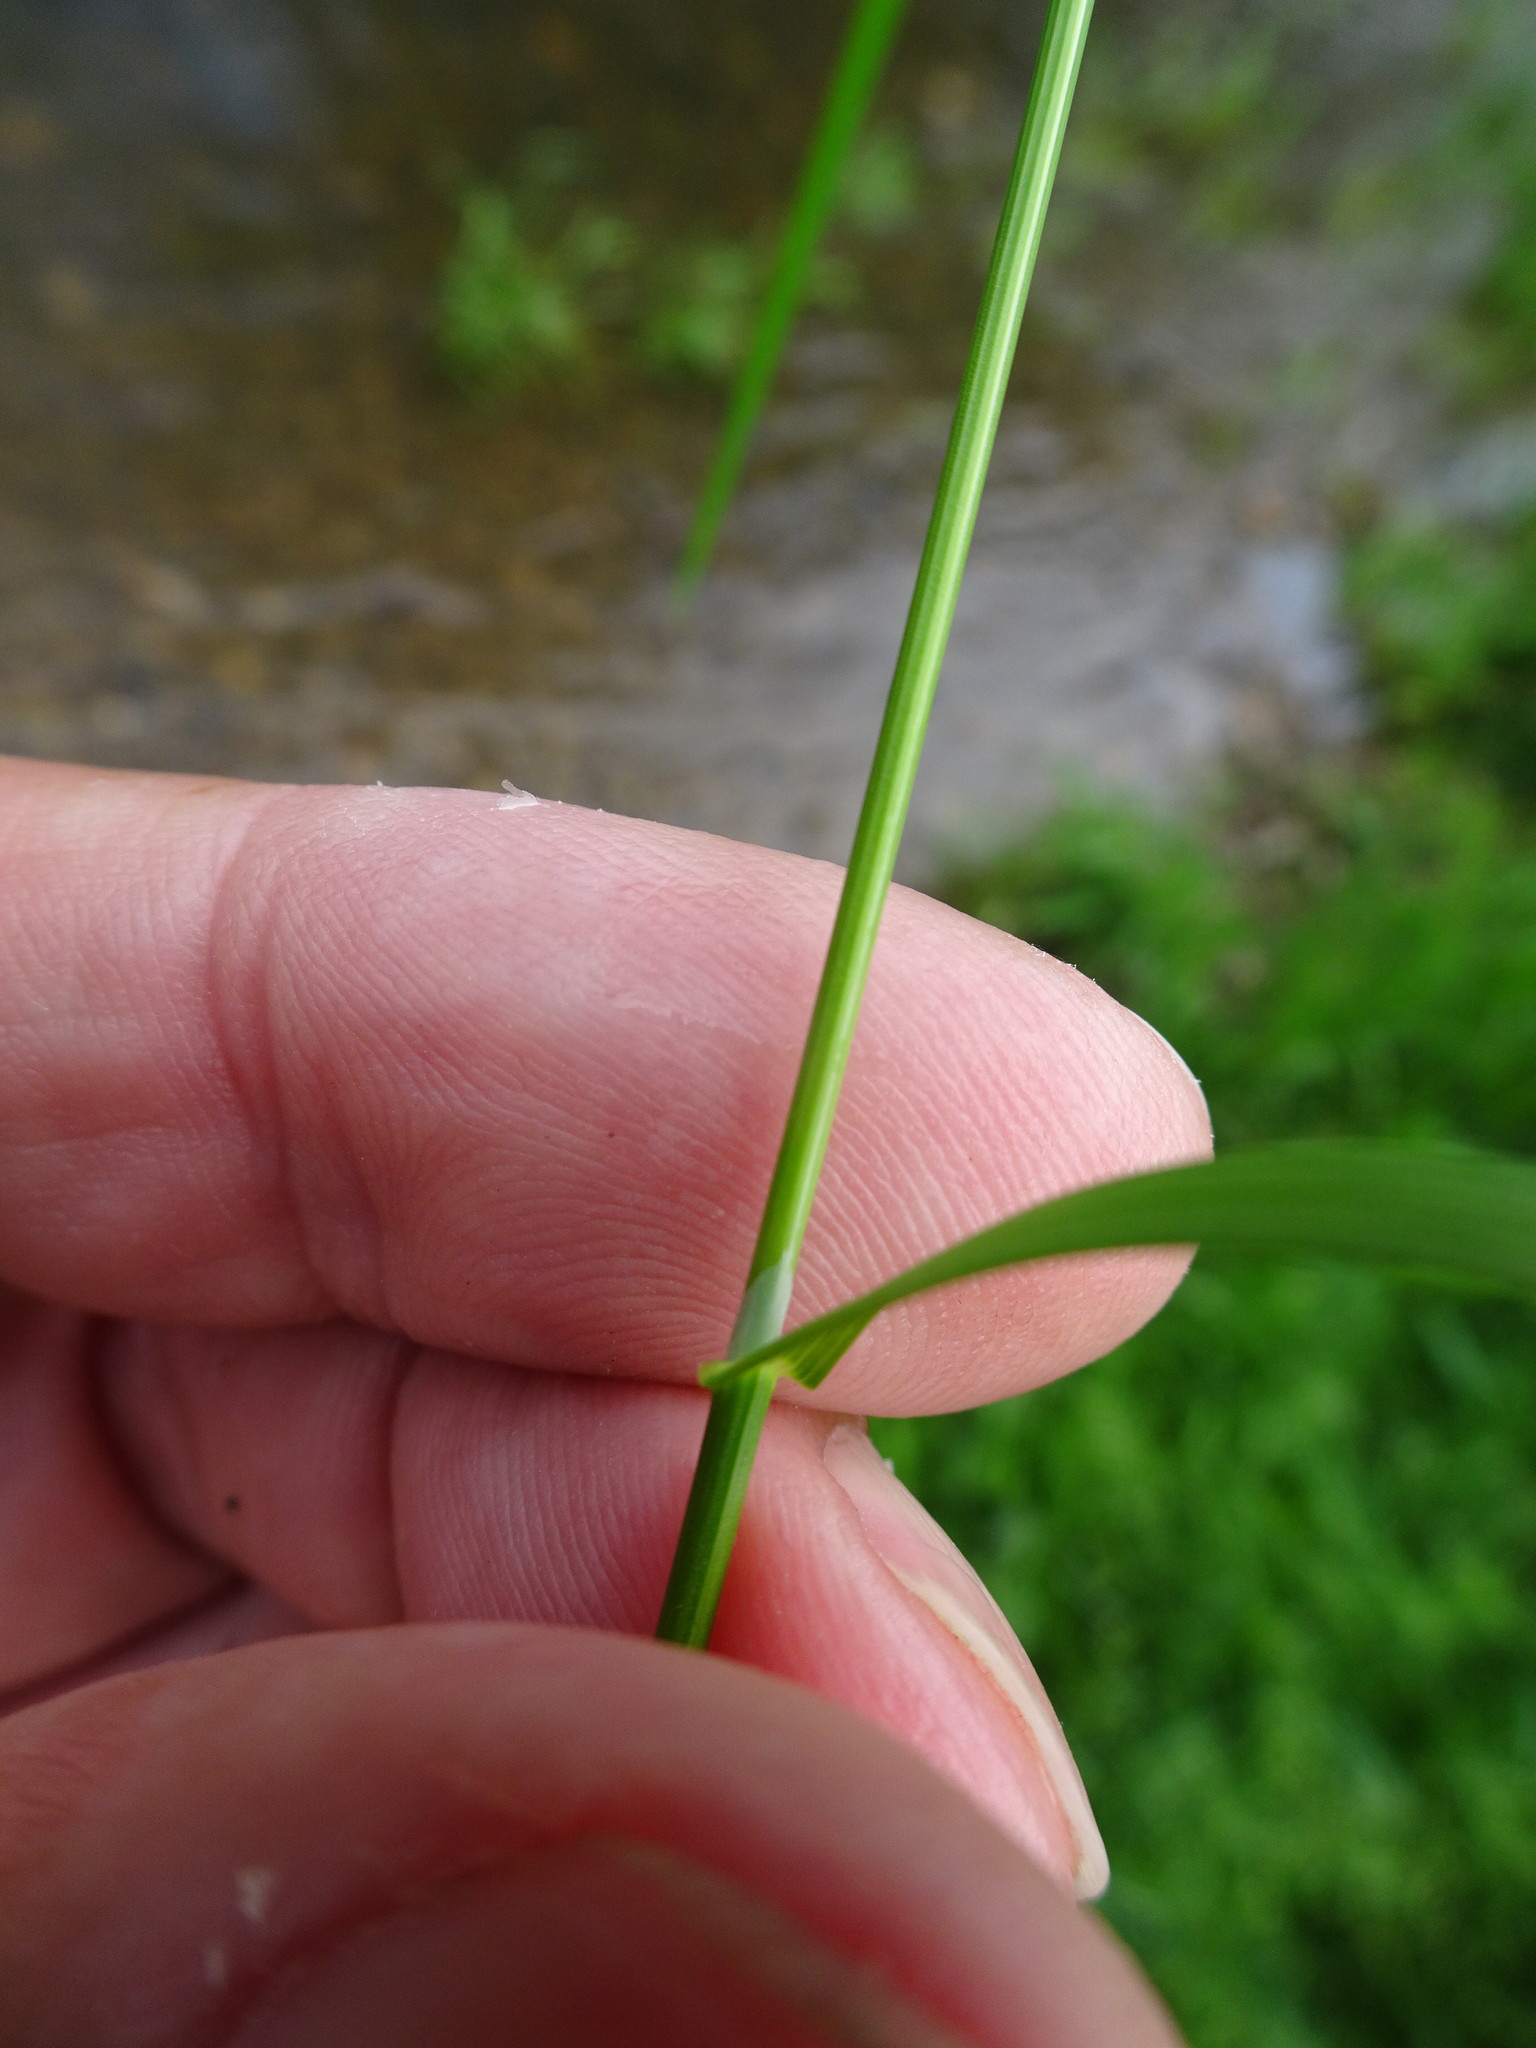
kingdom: Plantae
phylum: Tracheophyta
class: Liliopsida
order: Poales
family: Poaceae
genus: Poa
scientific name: Poa trivialis
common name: Rough bluegrass
